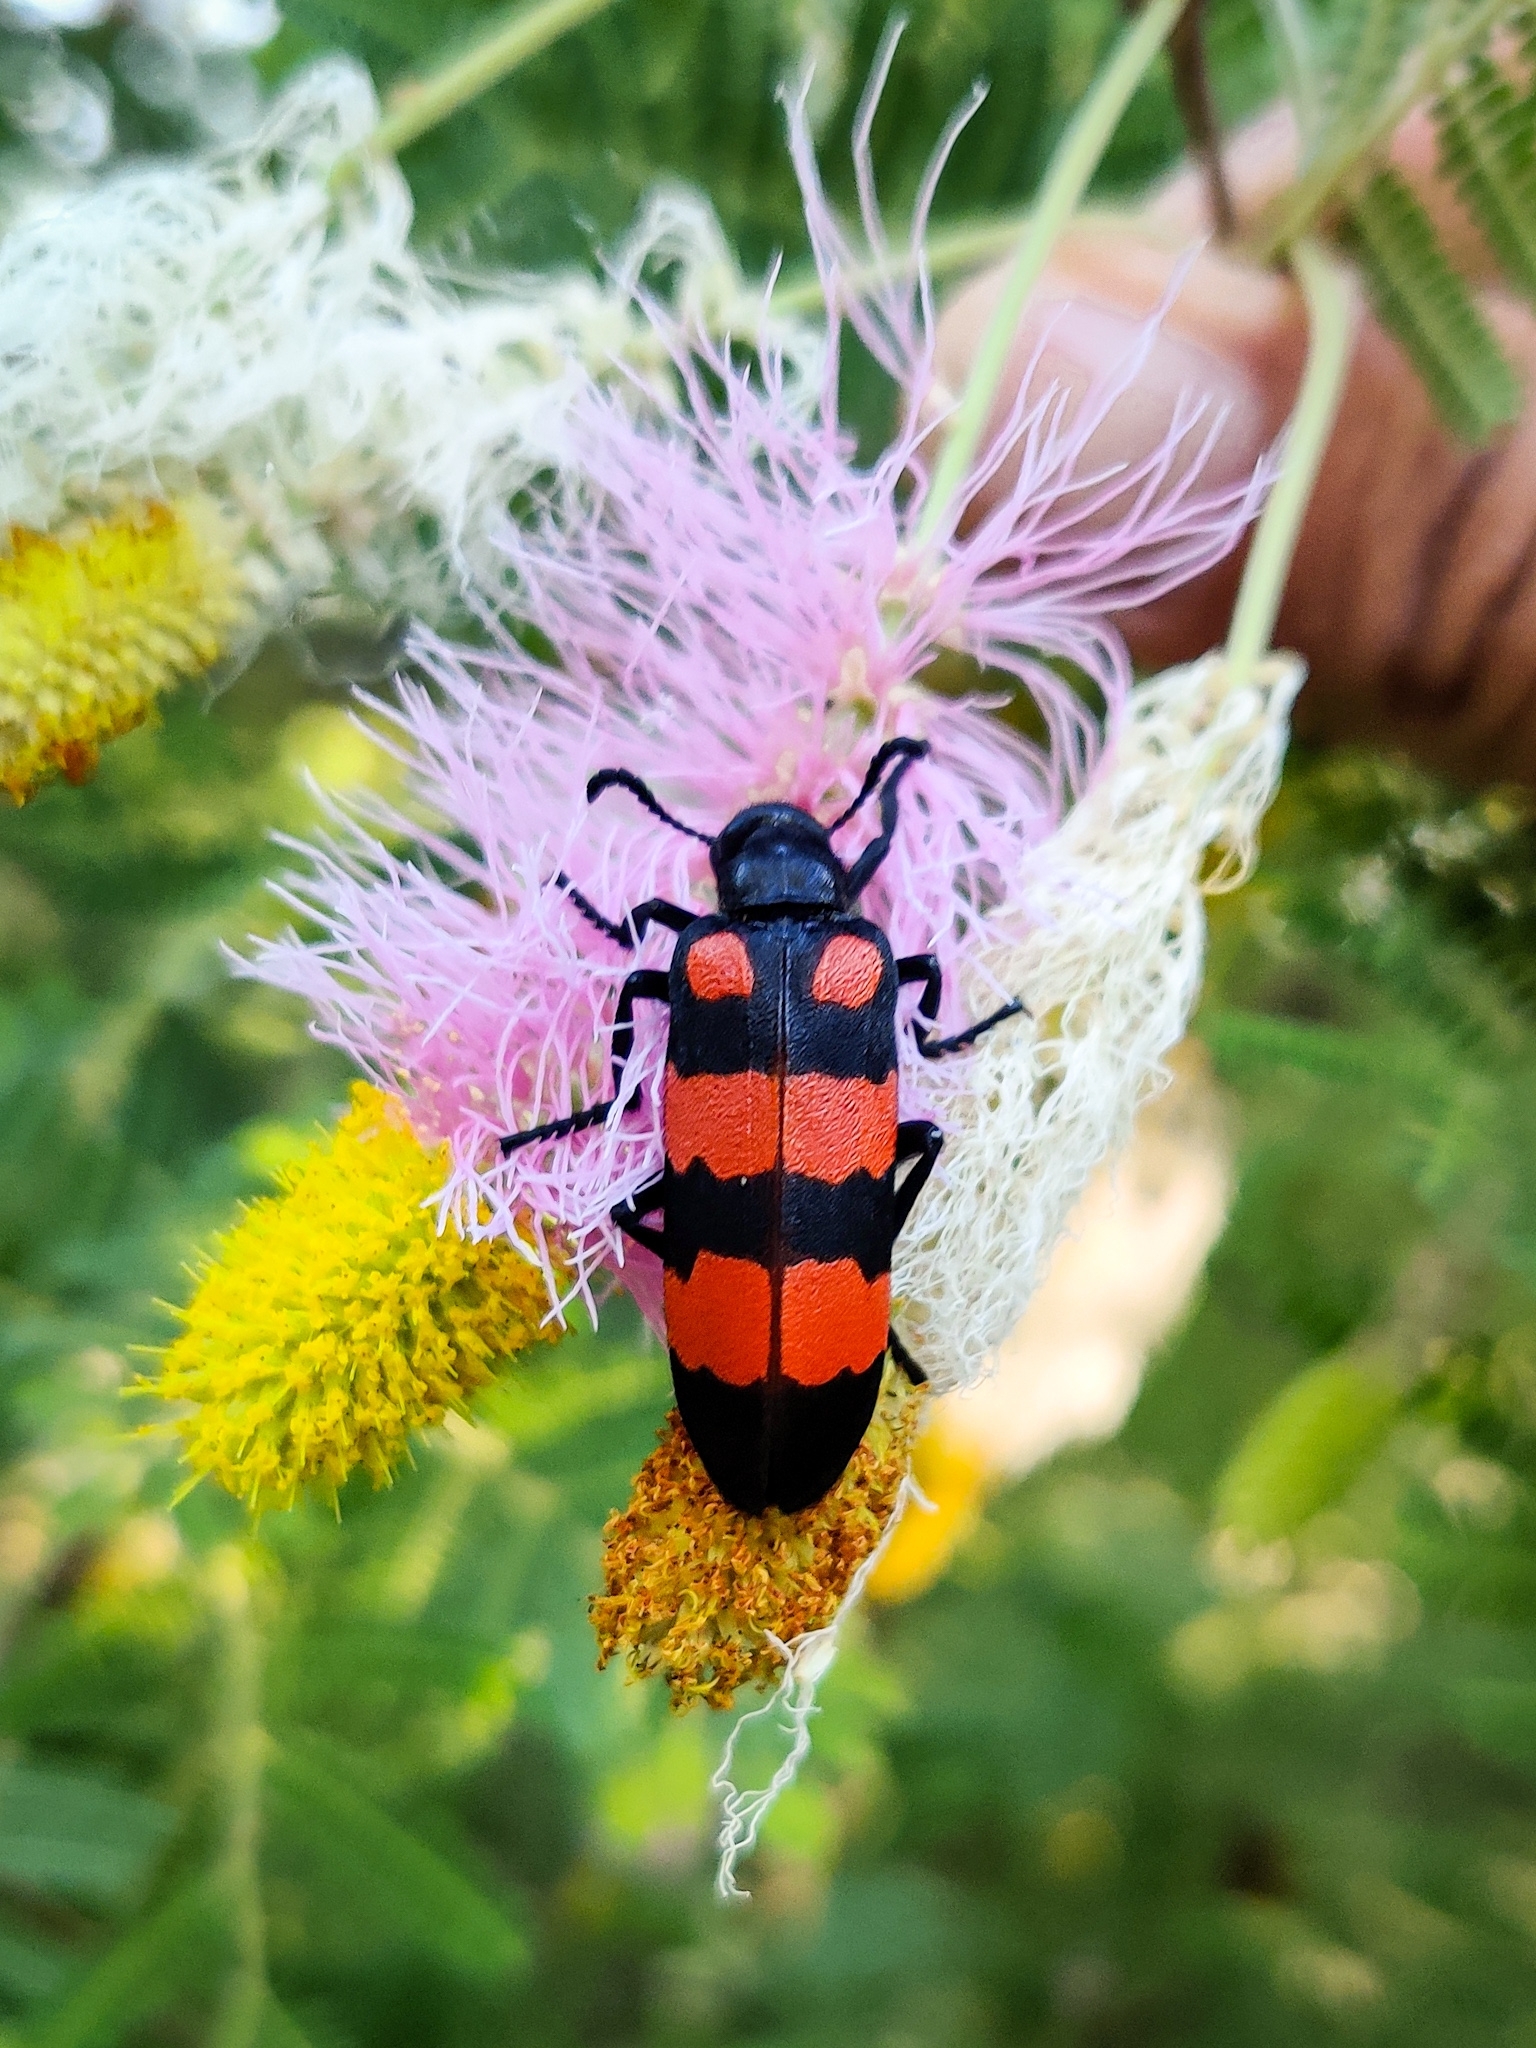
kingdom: Animalia
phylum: Arthropoda
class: Insecta
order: Coleoptera
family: Meloidae
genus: Hycleus
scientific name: Hycleus biundulatus
